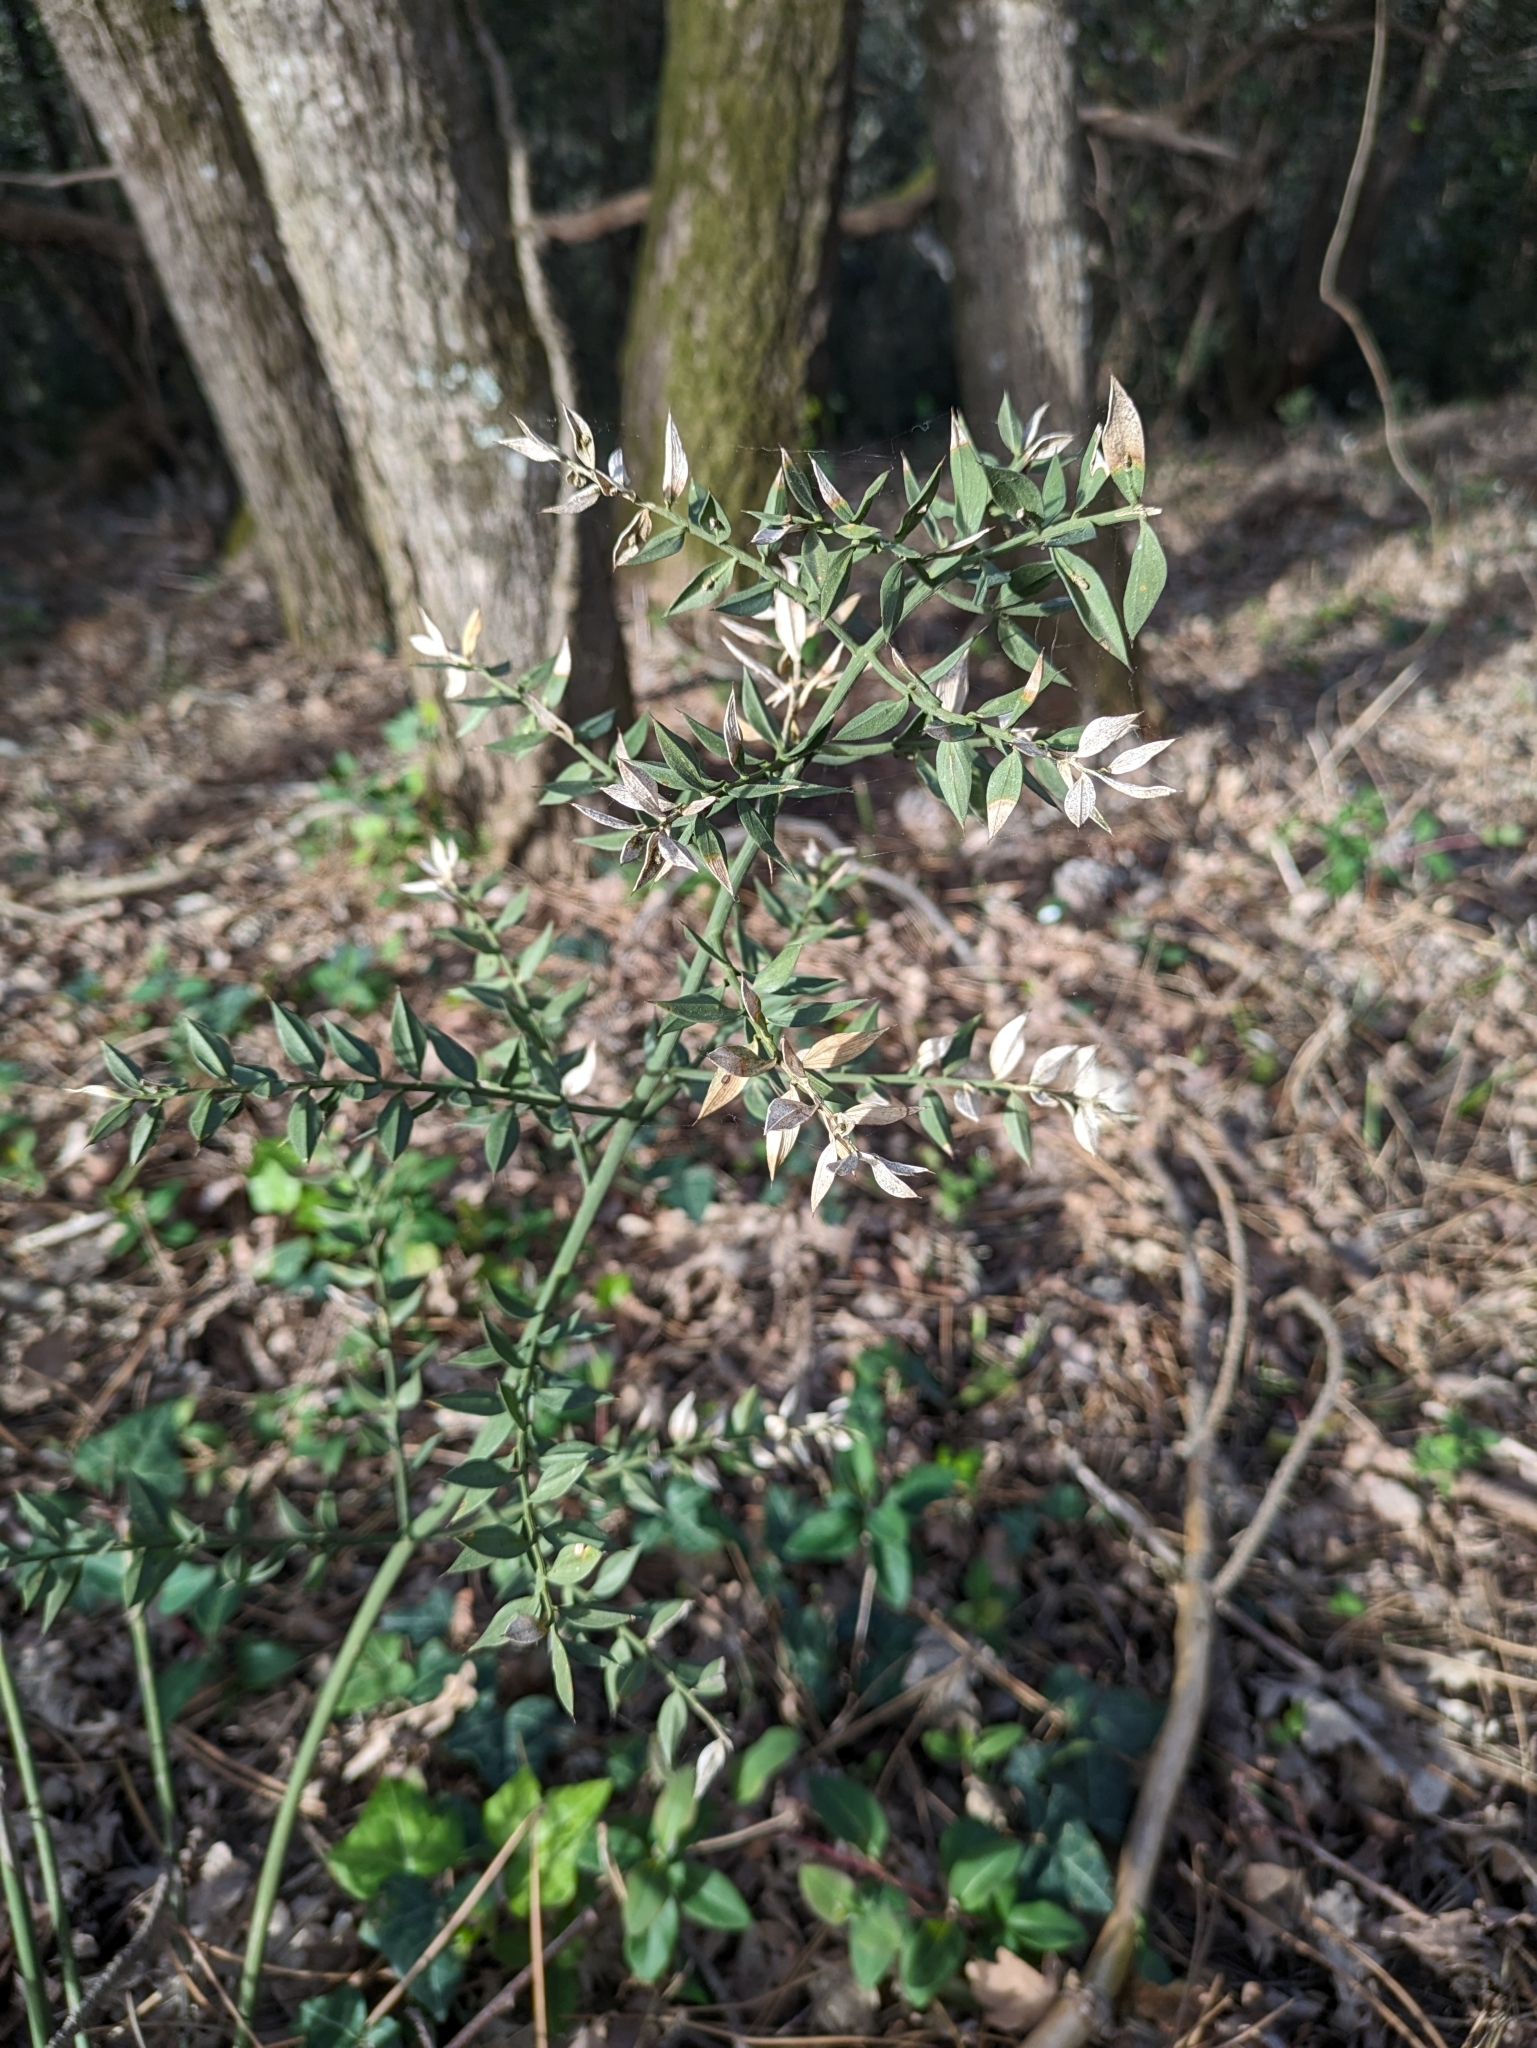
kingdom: Plantae
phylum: Tracheophyta
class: Liliopsida
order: Asparagales
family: Asparagaceae
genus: Ruscus
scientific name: Ruscus aculeatus
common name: Butcher's-broom
